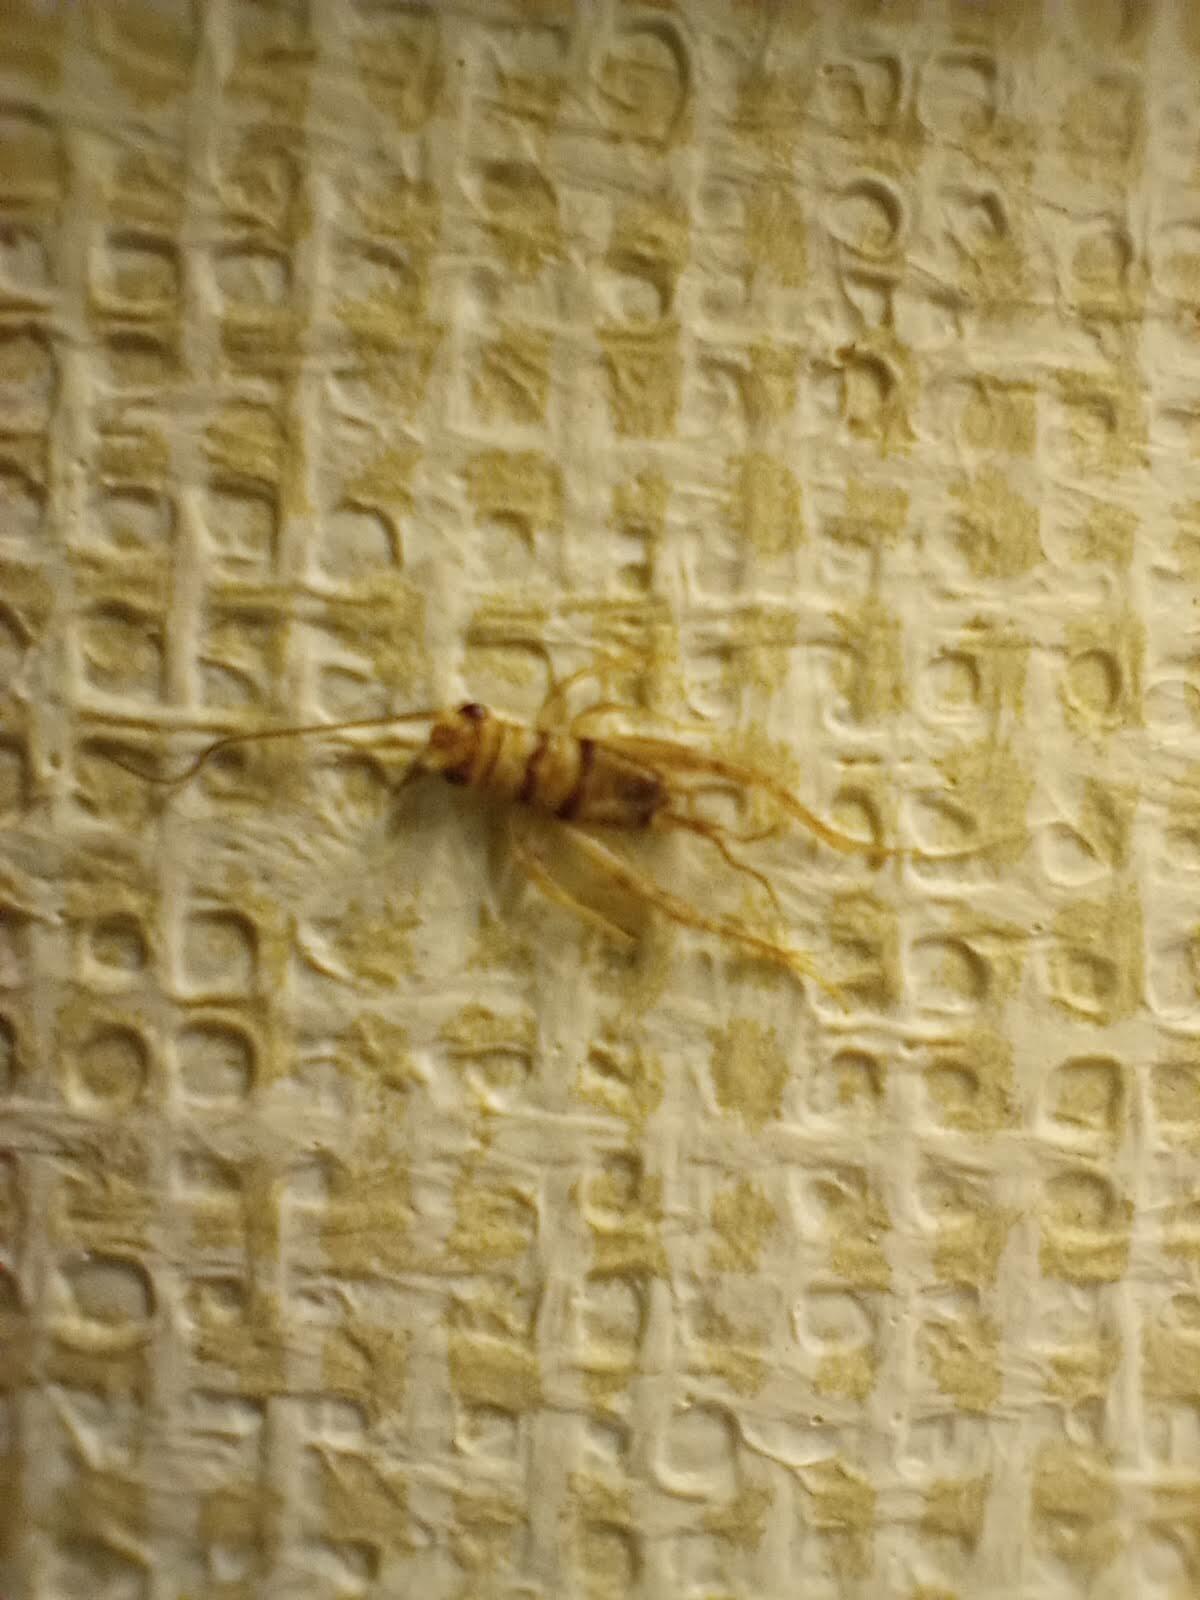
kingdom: Animalia
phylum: Arthropoda
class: Insecta
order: Orthoptera
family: Gryllidae
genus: Gryllodes
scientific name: Gryllodes sigillatus
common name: Tropical house cricket
